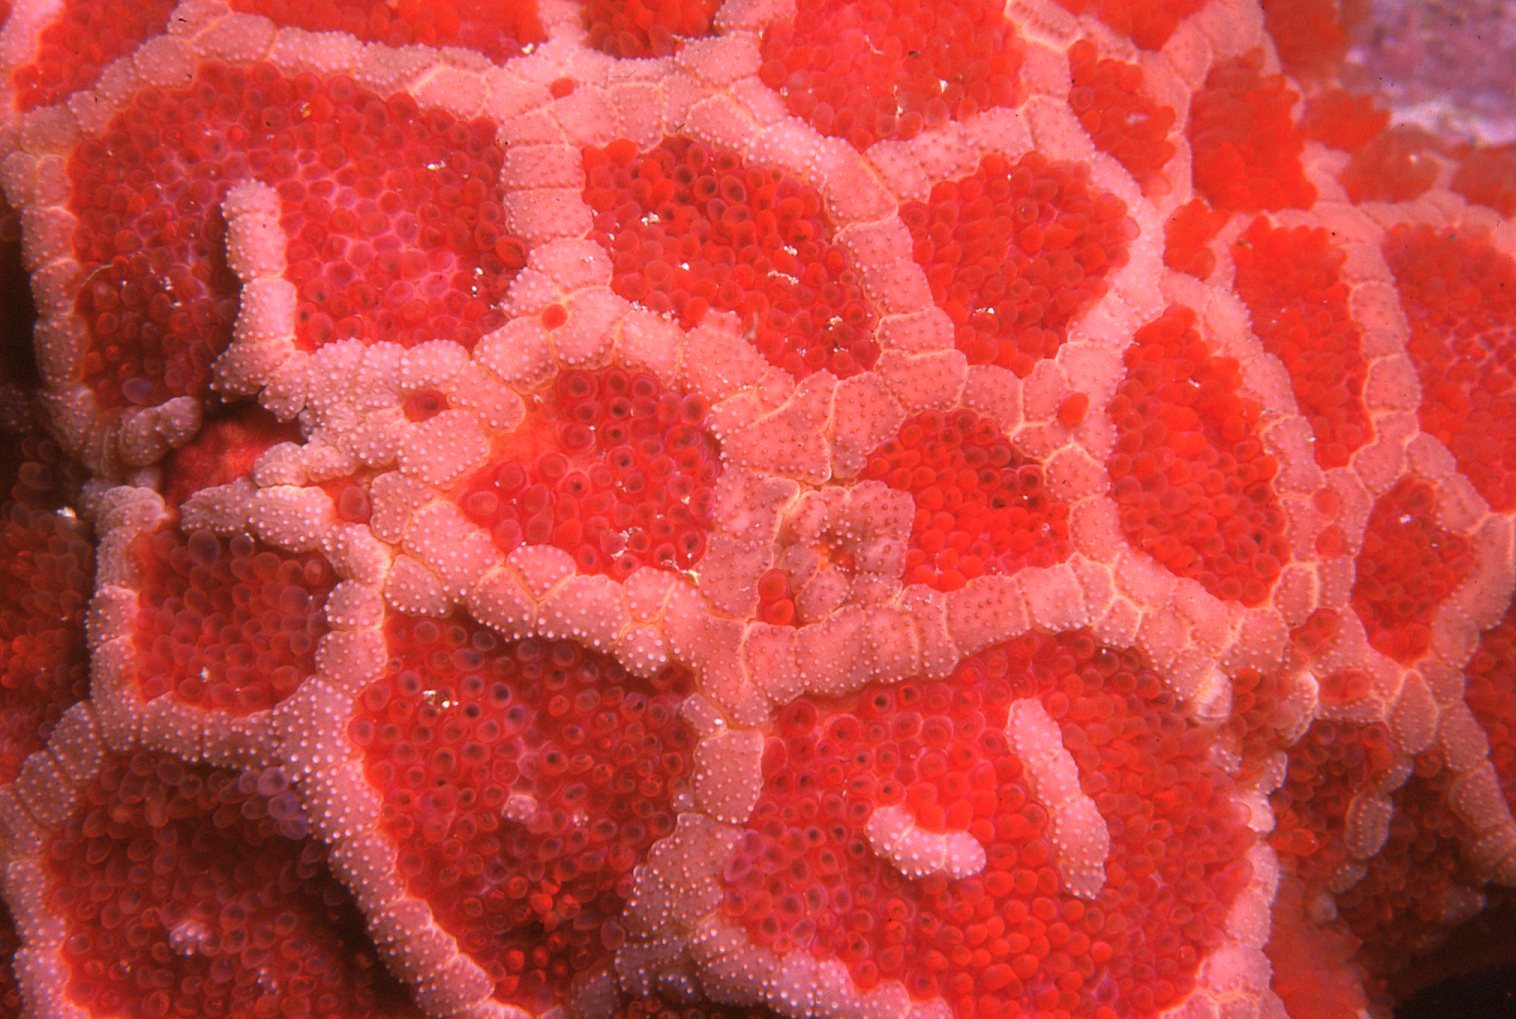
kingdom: Animalia
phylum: Echinodermata
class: Asteroidea
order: Spinulosida
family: Echinasteridae
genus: Plectaster
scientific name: Plectaster decanus
